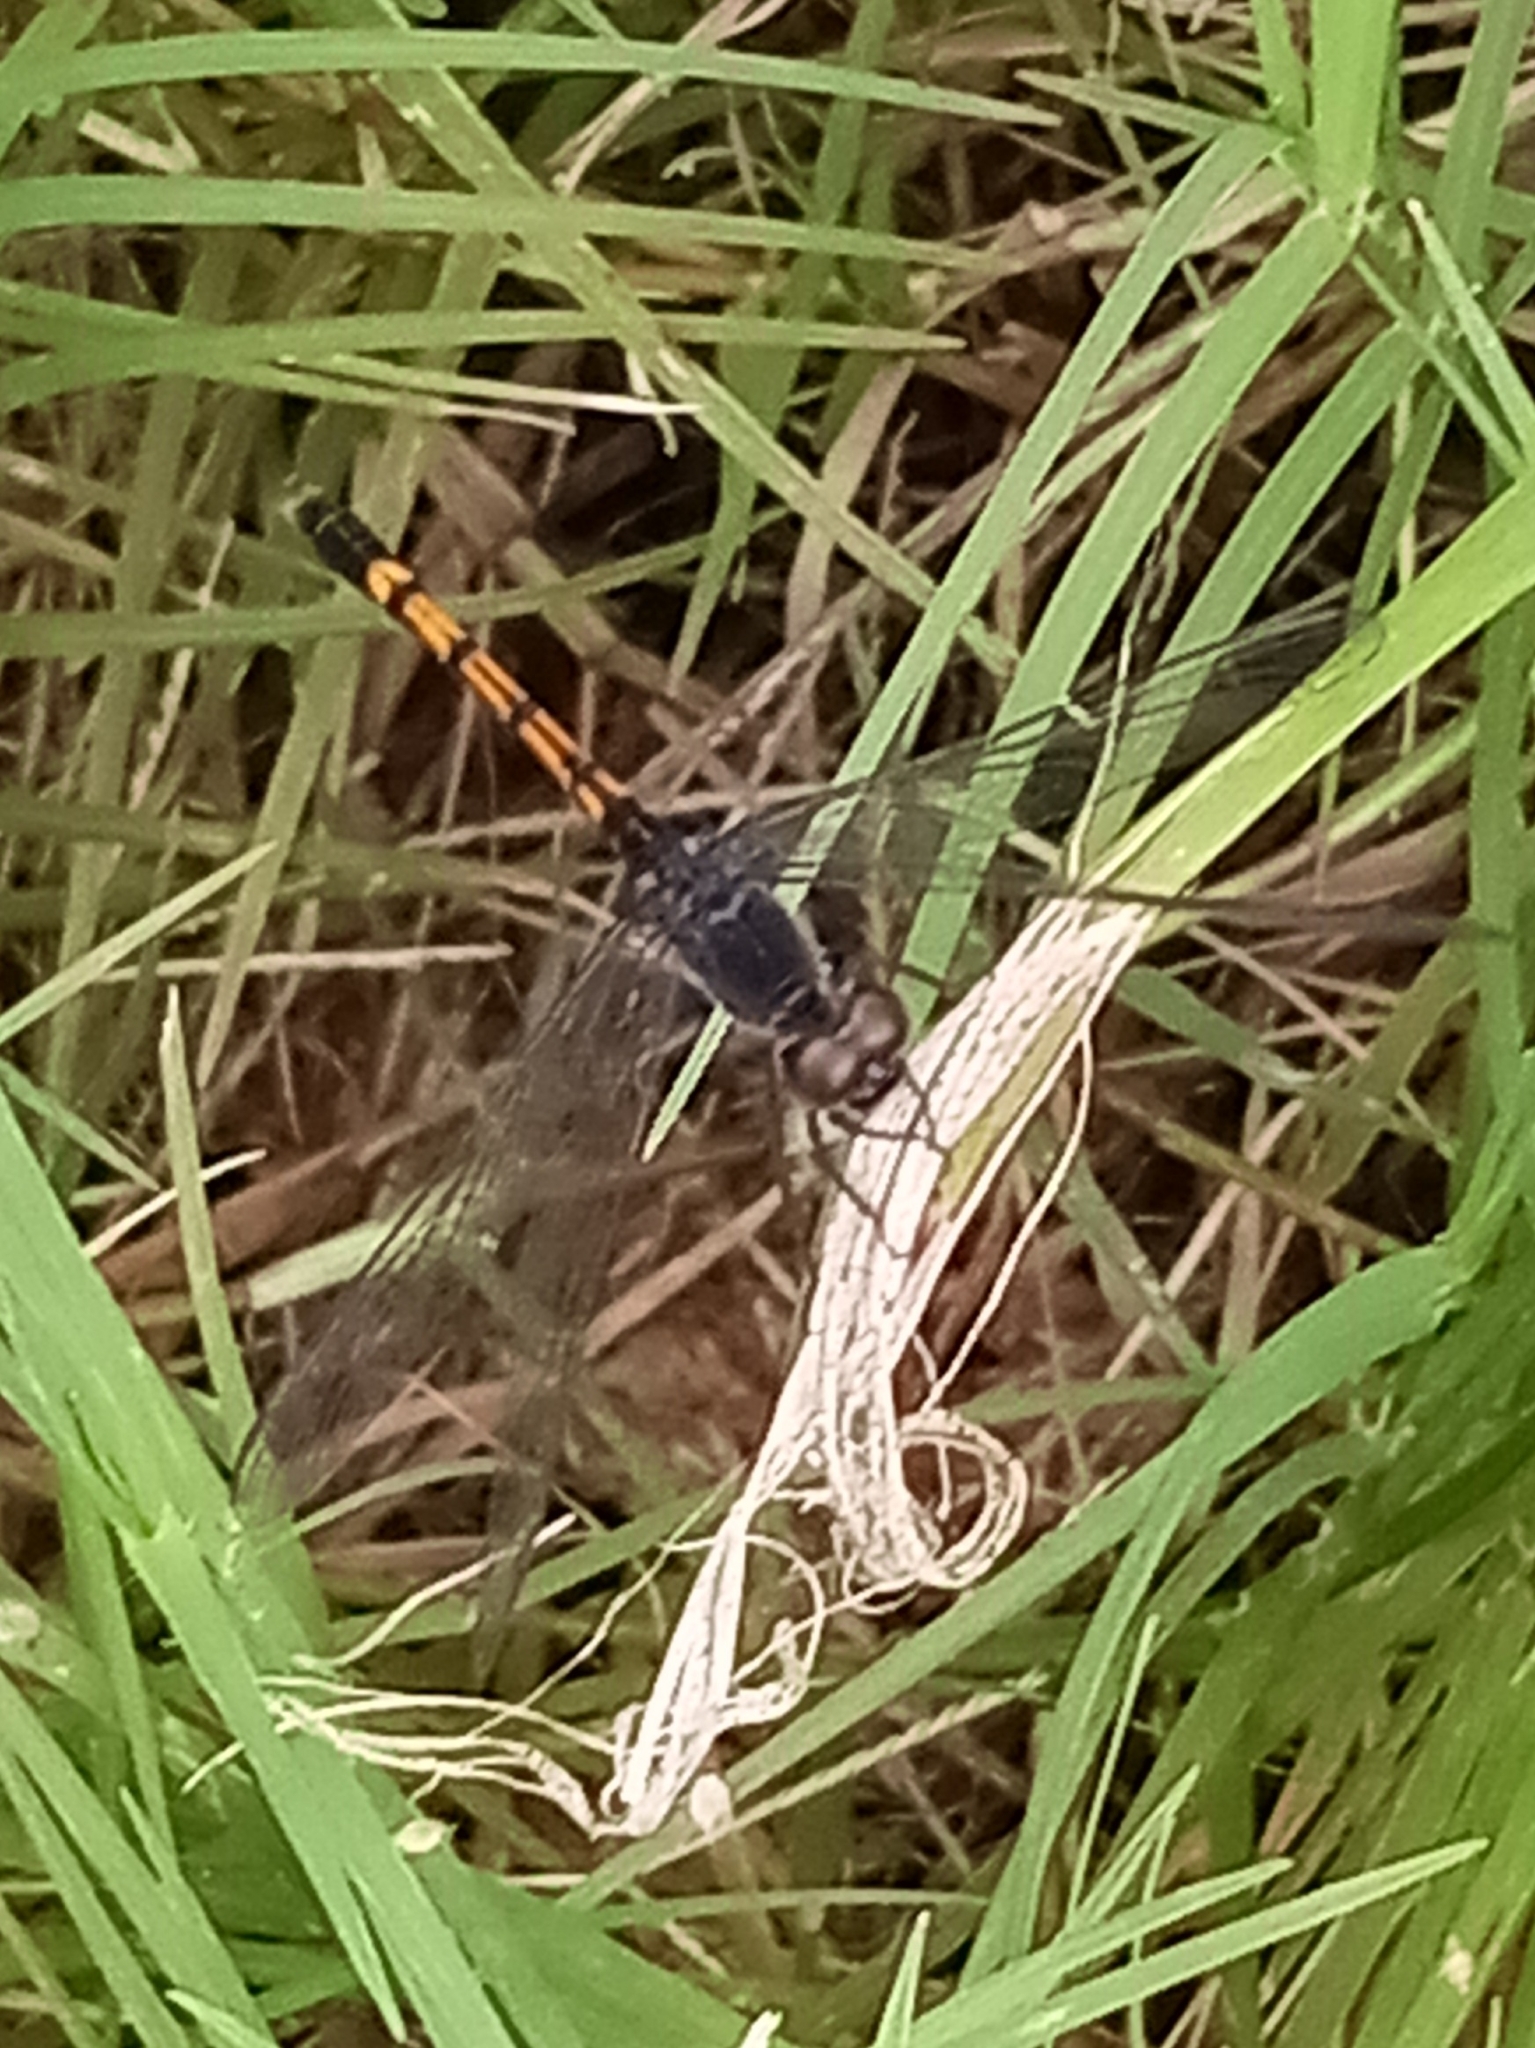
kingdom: Animalia
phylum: Arthropoda
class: Insecta
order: Odonata
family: Libellulidae
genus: Erythrodiplax
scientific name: Erythrodiplax berenice
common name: Seaside dragonlet
